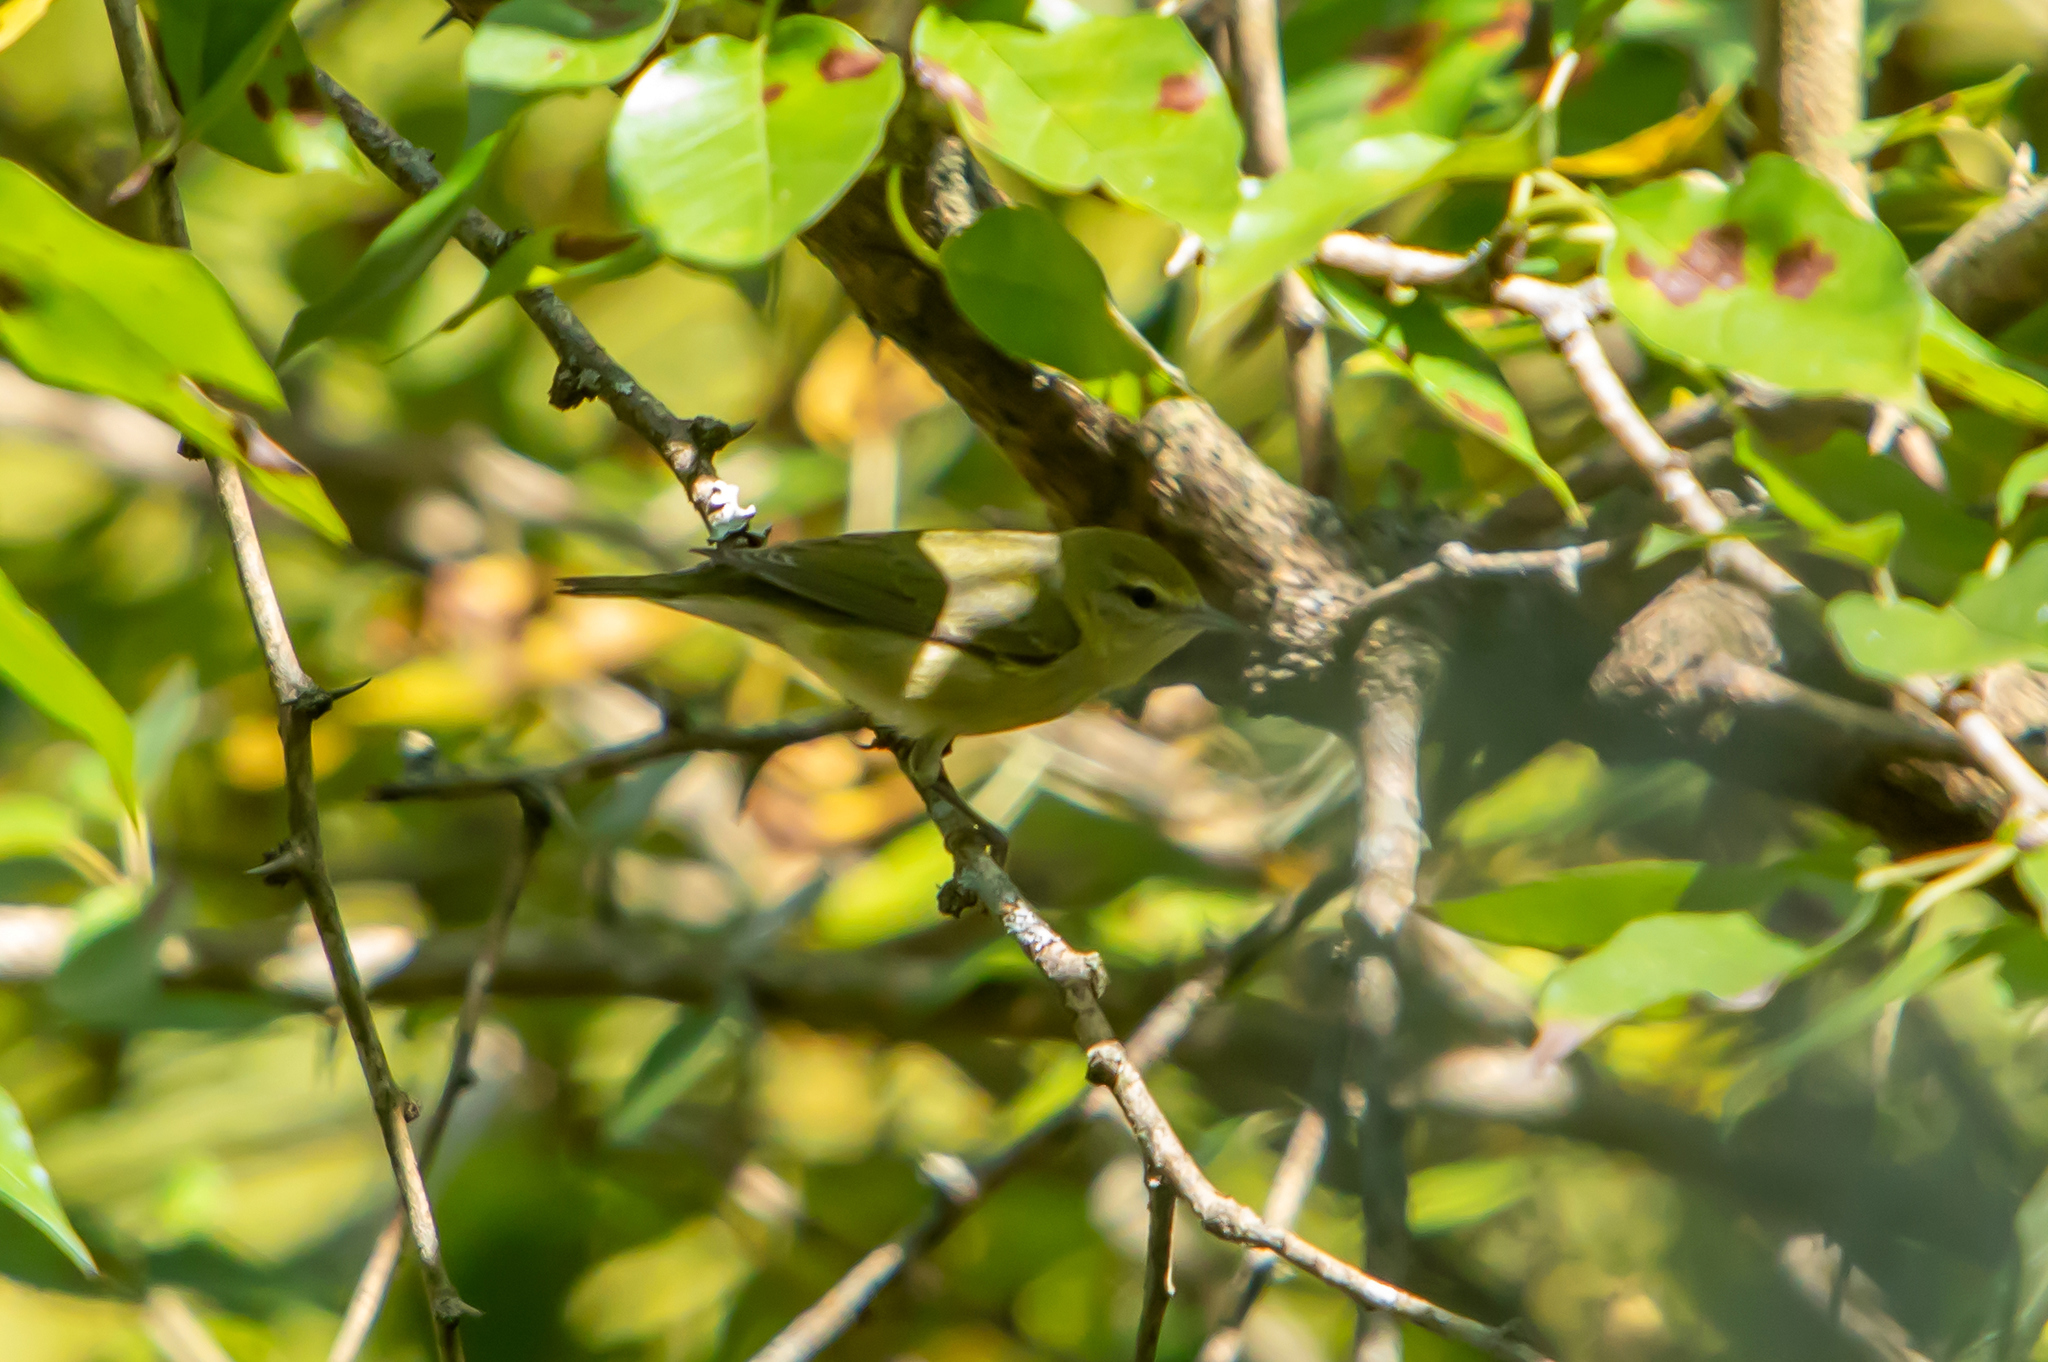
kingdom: Animalia
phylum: Chordata
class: Aves
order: Passeriformes
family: Parulidae
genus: Leiothlypis
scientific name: Leiothlypis peregrina
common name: Tennessee warbler
